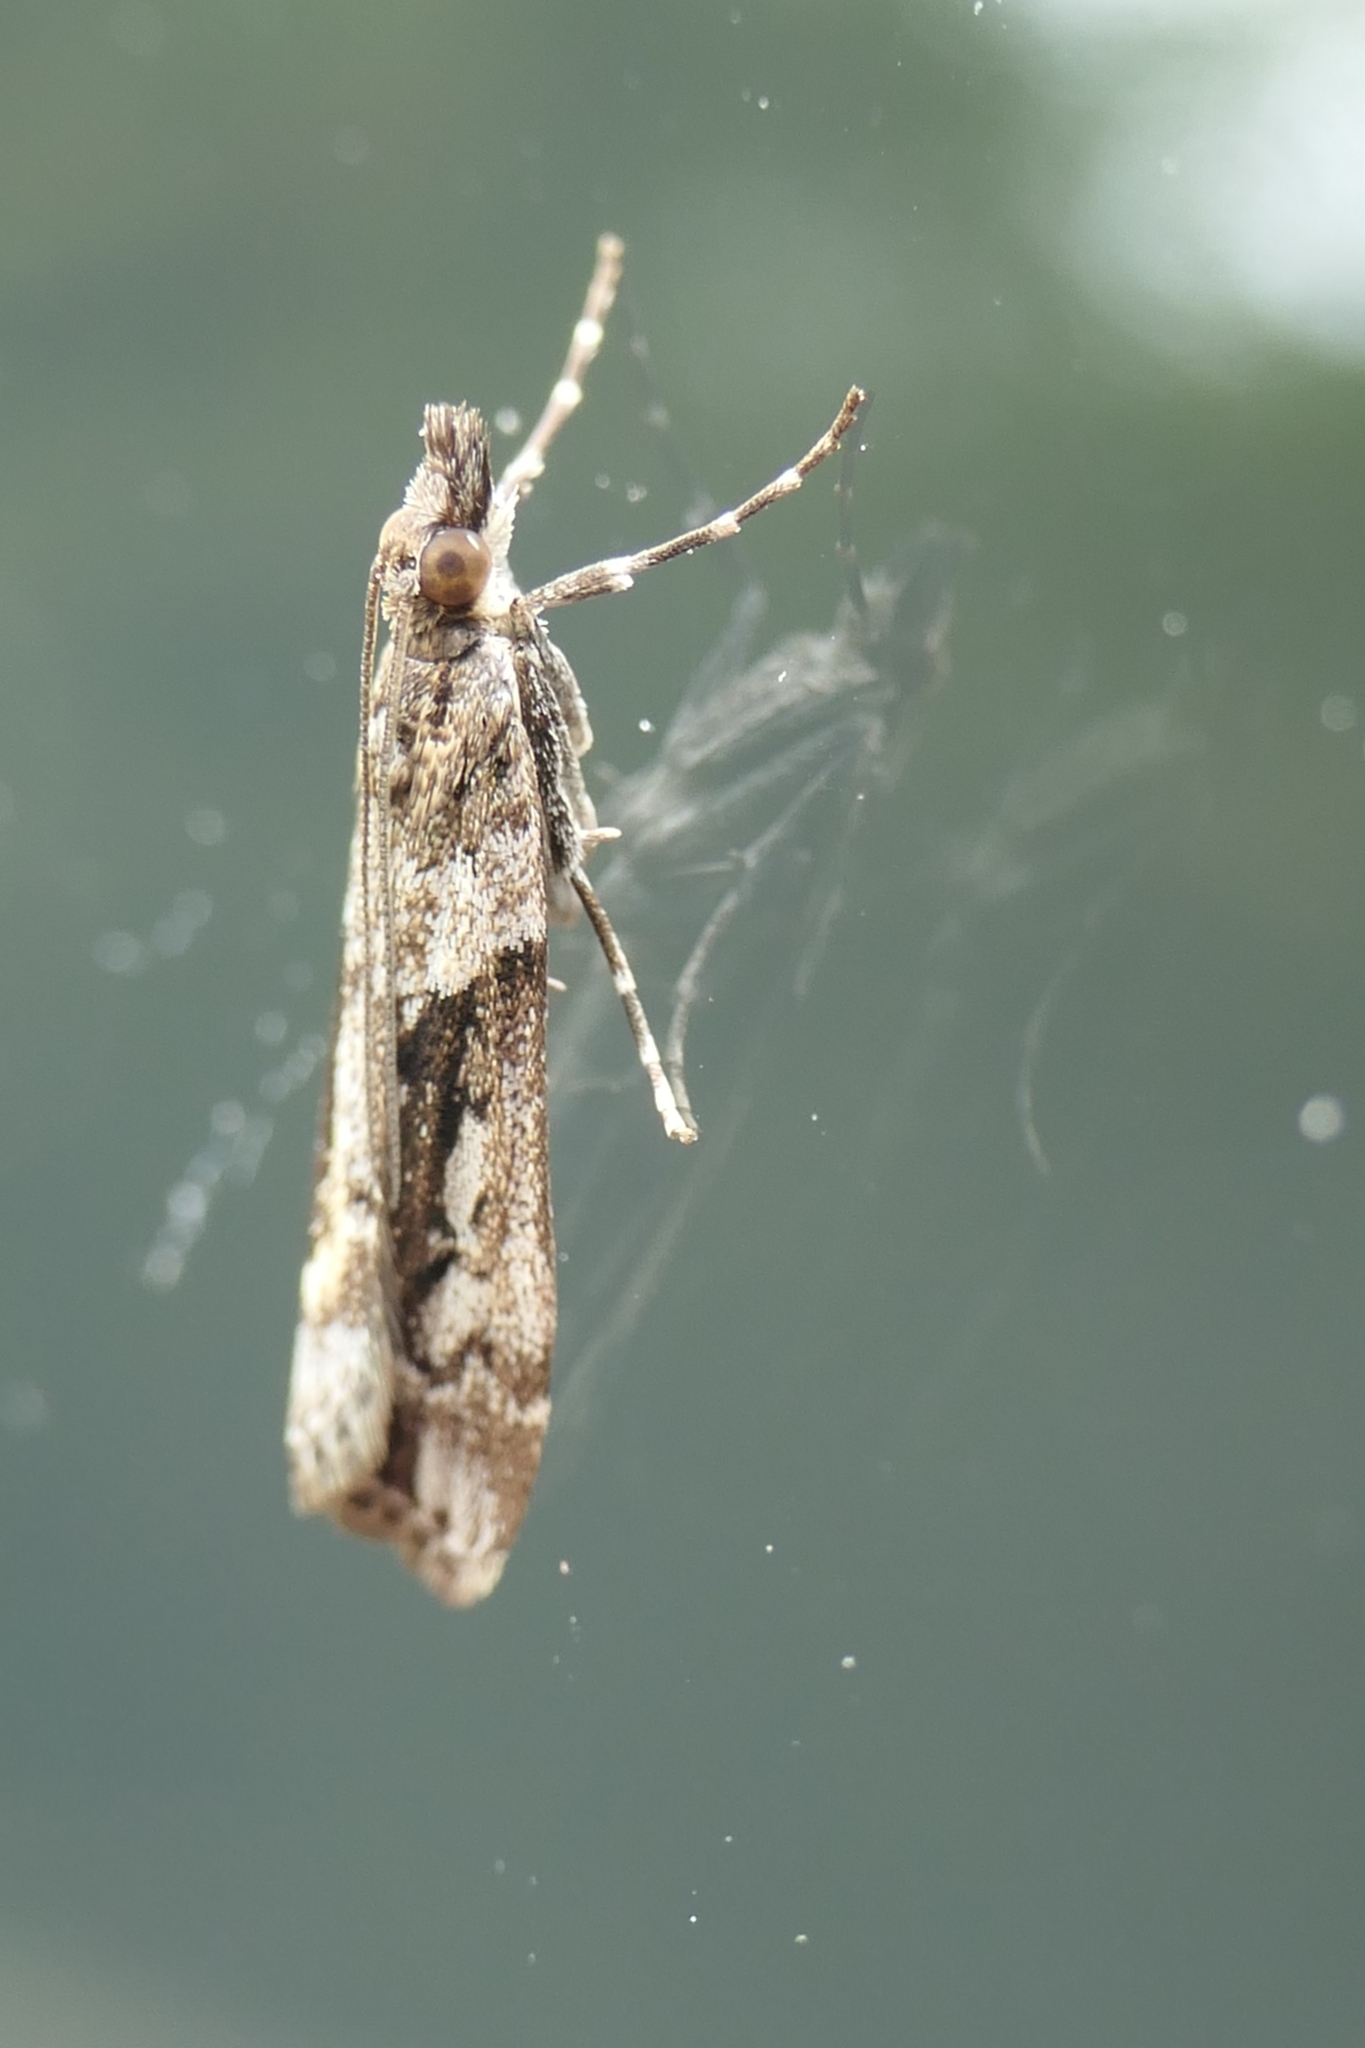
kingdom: Animalia
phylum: Arthropoda
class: Insecta
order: Lepidoptera
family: Crambidae
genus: Eudonia
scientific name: Eudonia submarginalis
